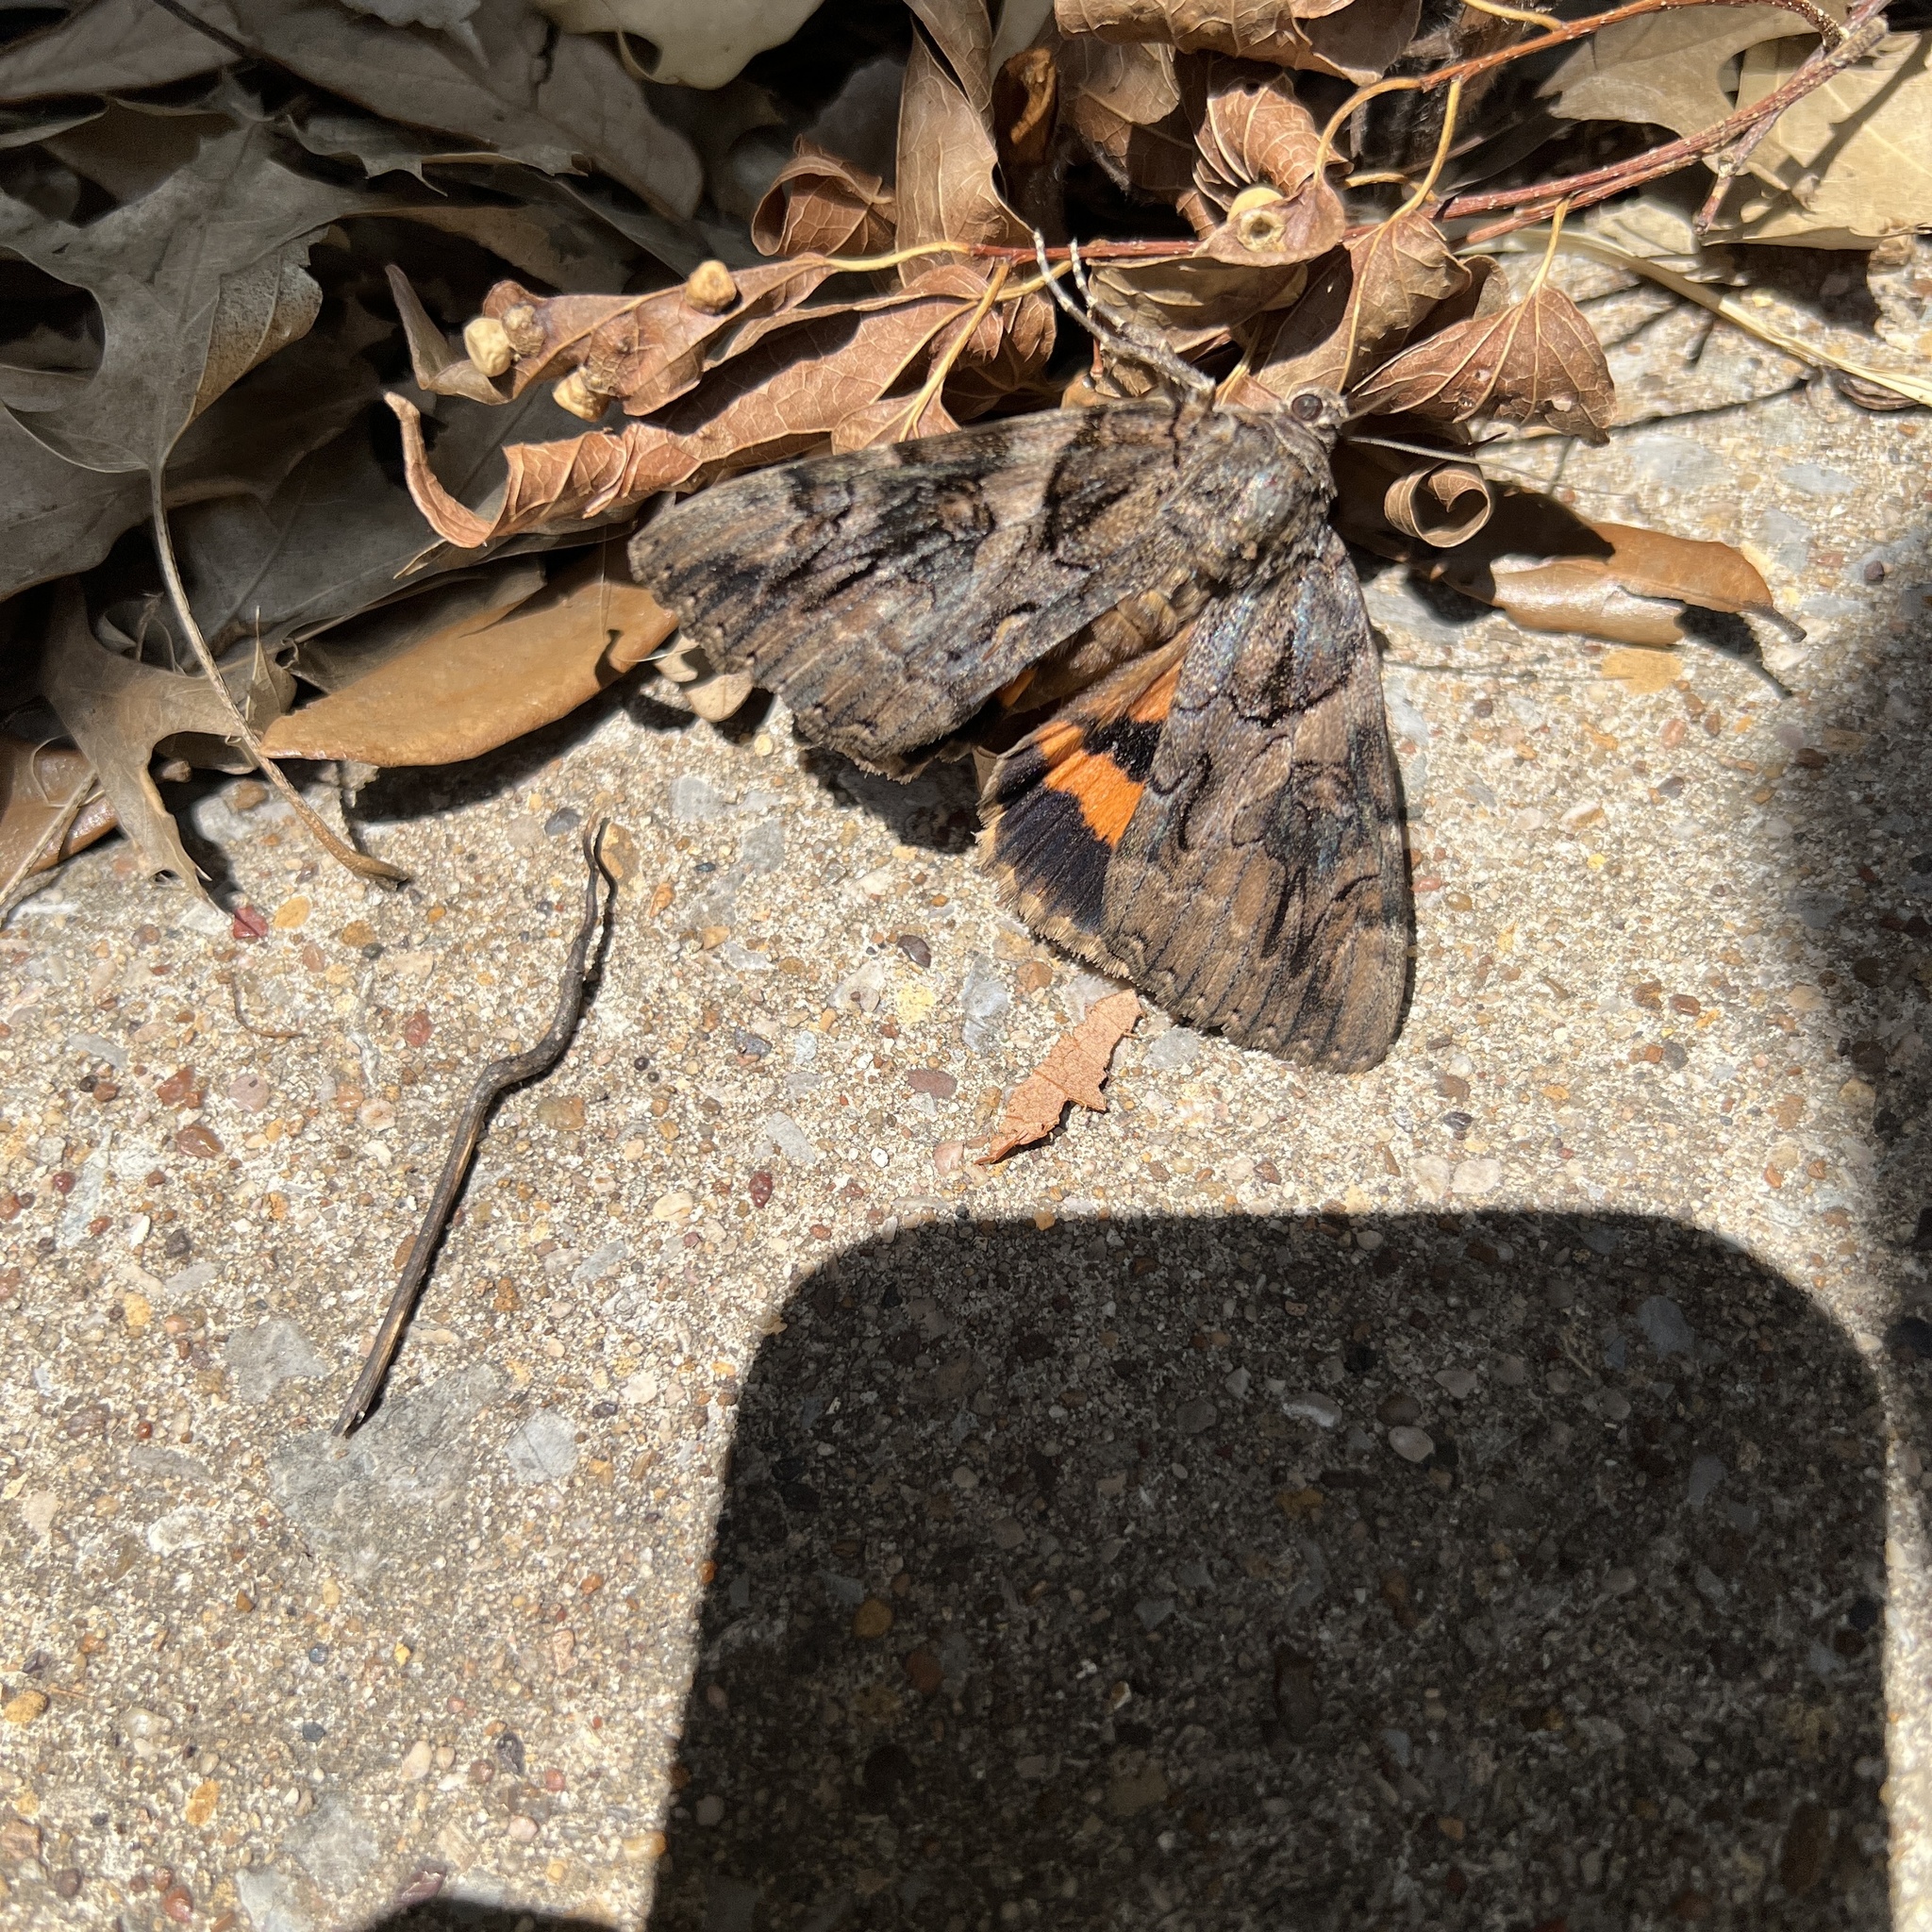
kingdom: Animalia
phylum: Arthropoda
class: Insecta
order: Lepidoptera
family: Erebidae
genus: Catocala
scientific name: Catocala piatrix
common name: The penitent underwing
